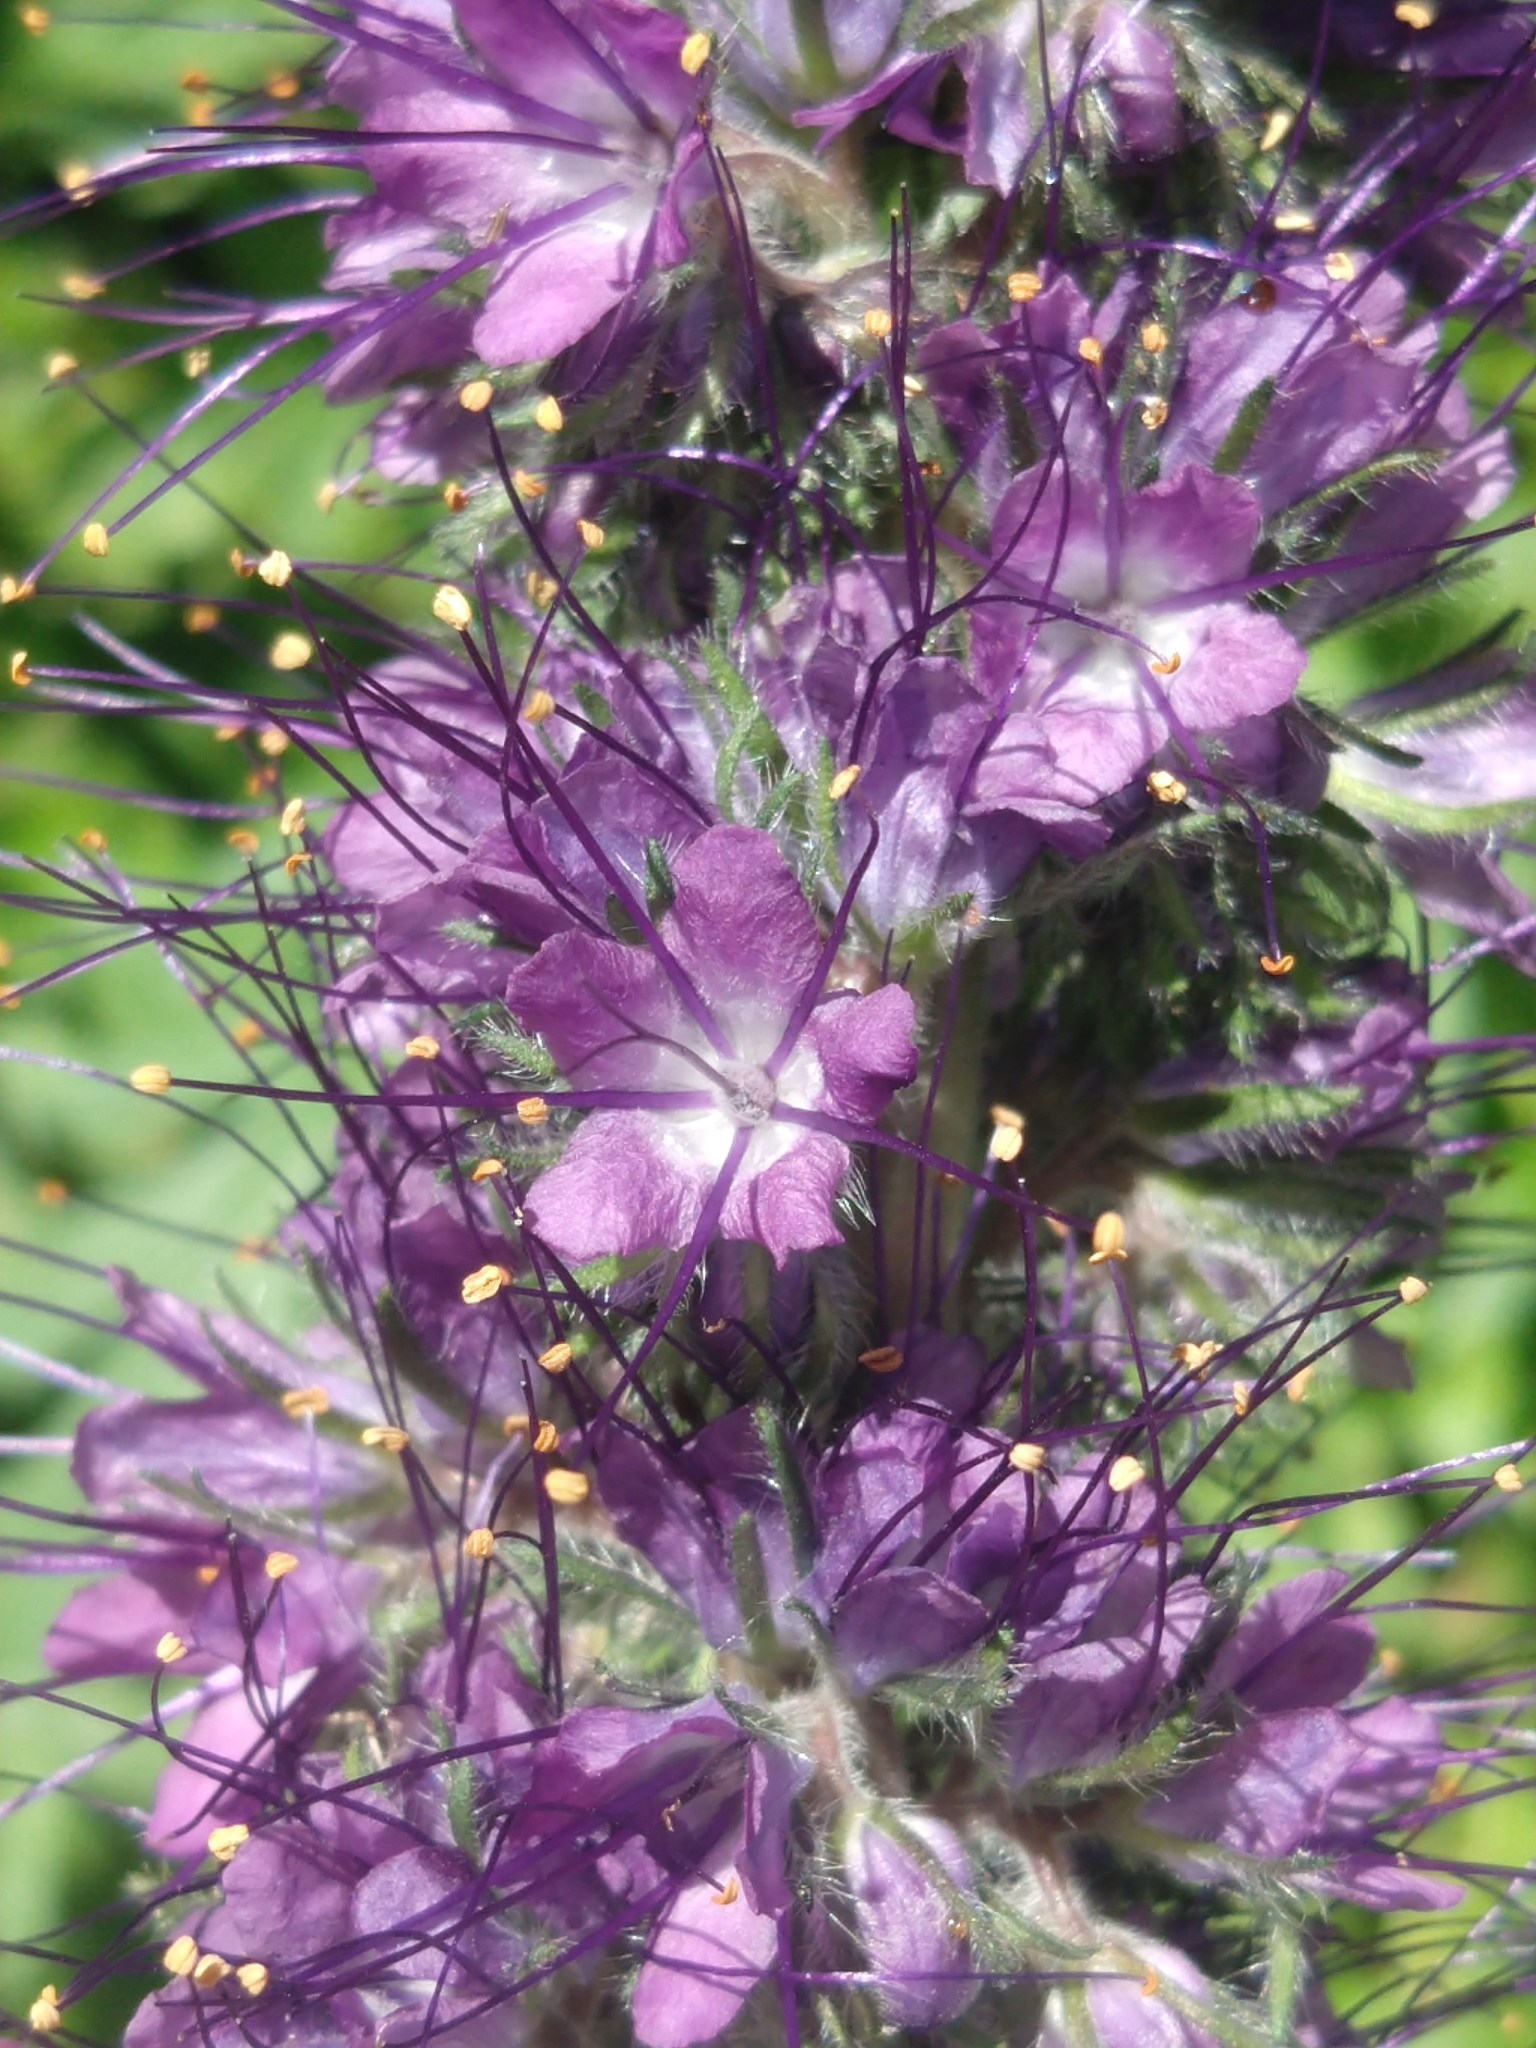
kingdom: Plantae
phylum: Tracheophyta
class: Magnoliopsida
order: Boraginales
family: Hydrophyllaceae
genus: Phacelia
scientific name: Phacelia sericea
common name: Silky phacelia
